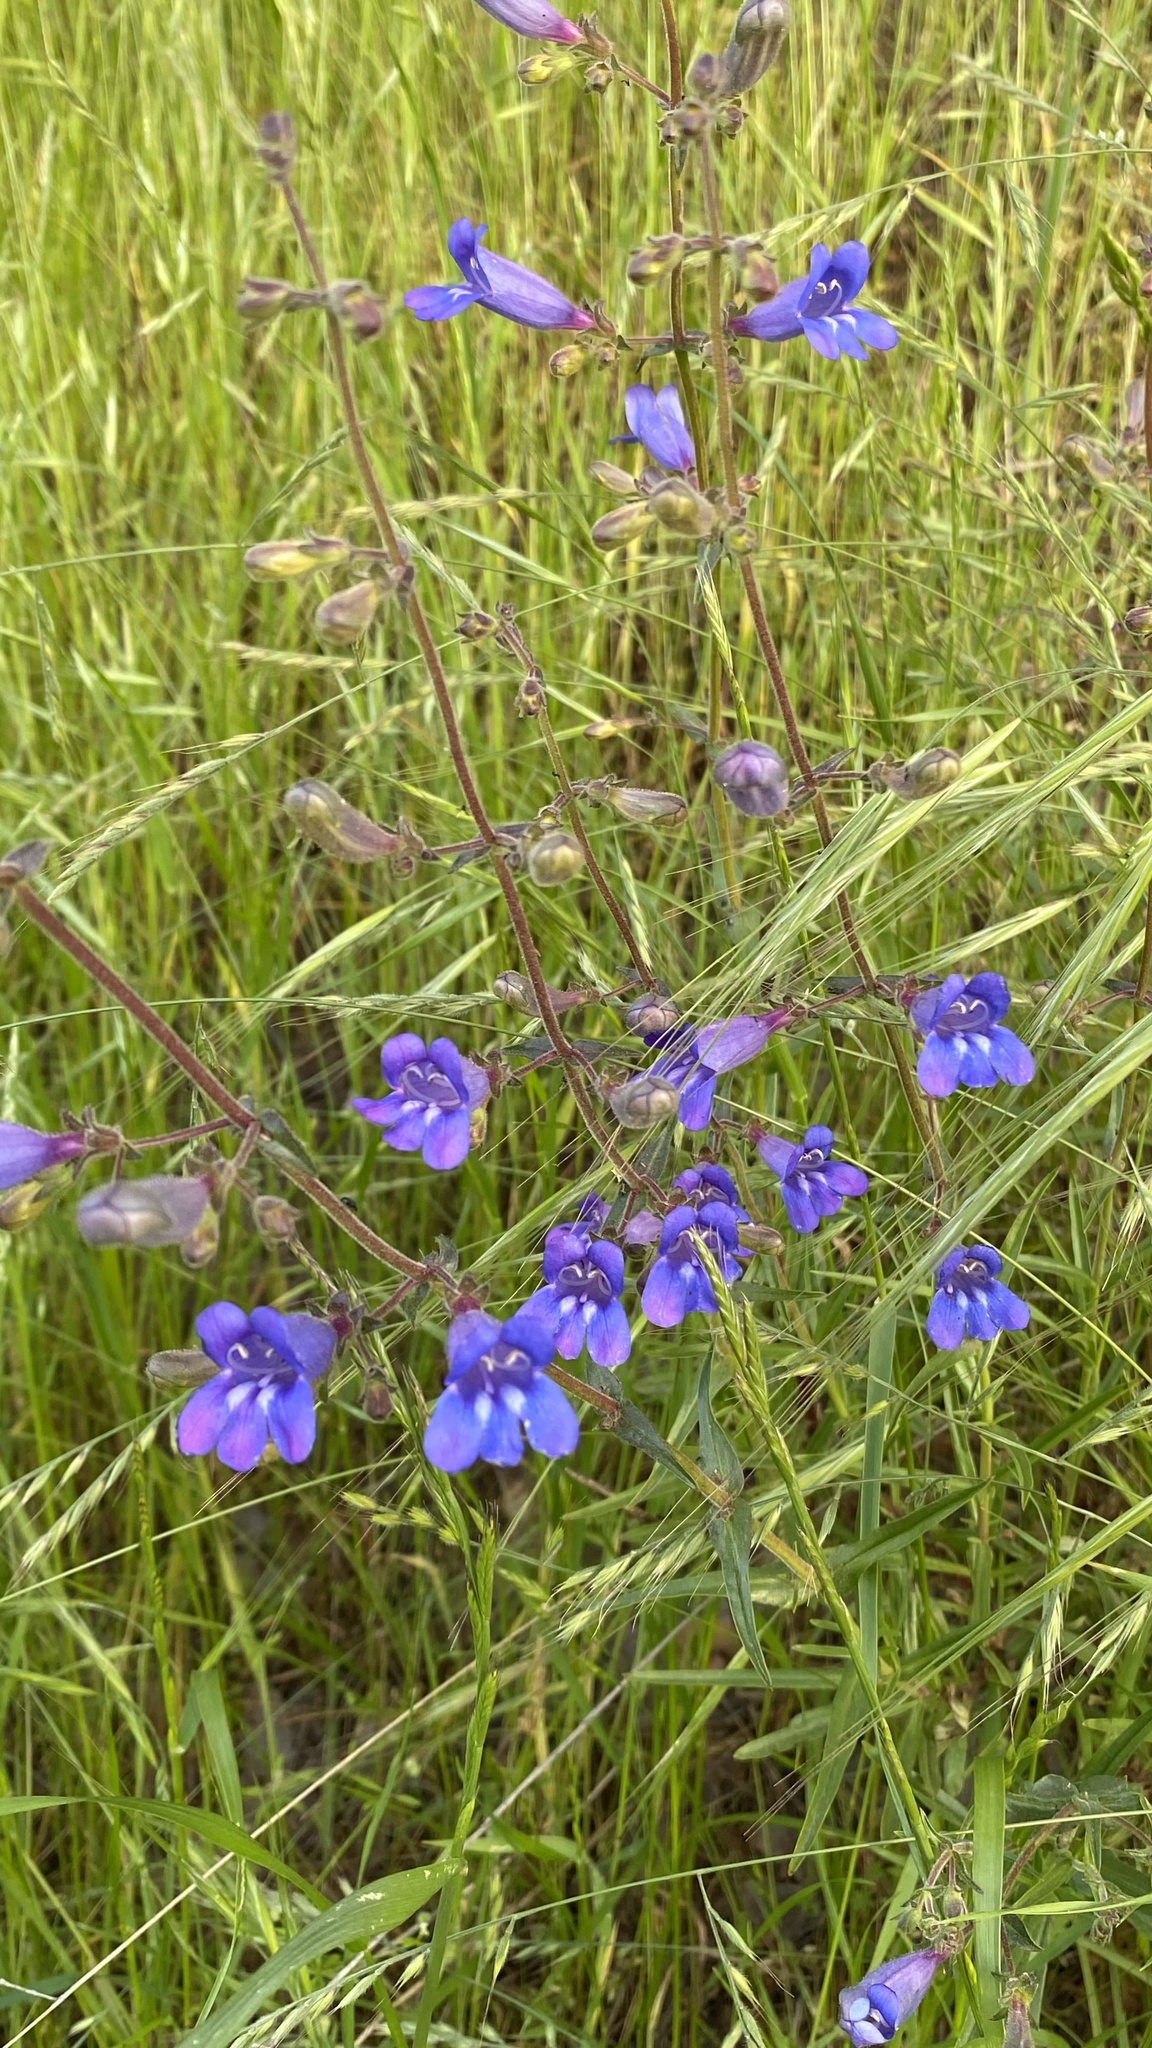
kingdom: Plantae
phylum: Tracheophyta
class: Magnoliopsida
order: Lamiales
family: Plantaginaceae
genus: Penstemon
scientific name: Penstemon laetus
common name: Gay penstemon
